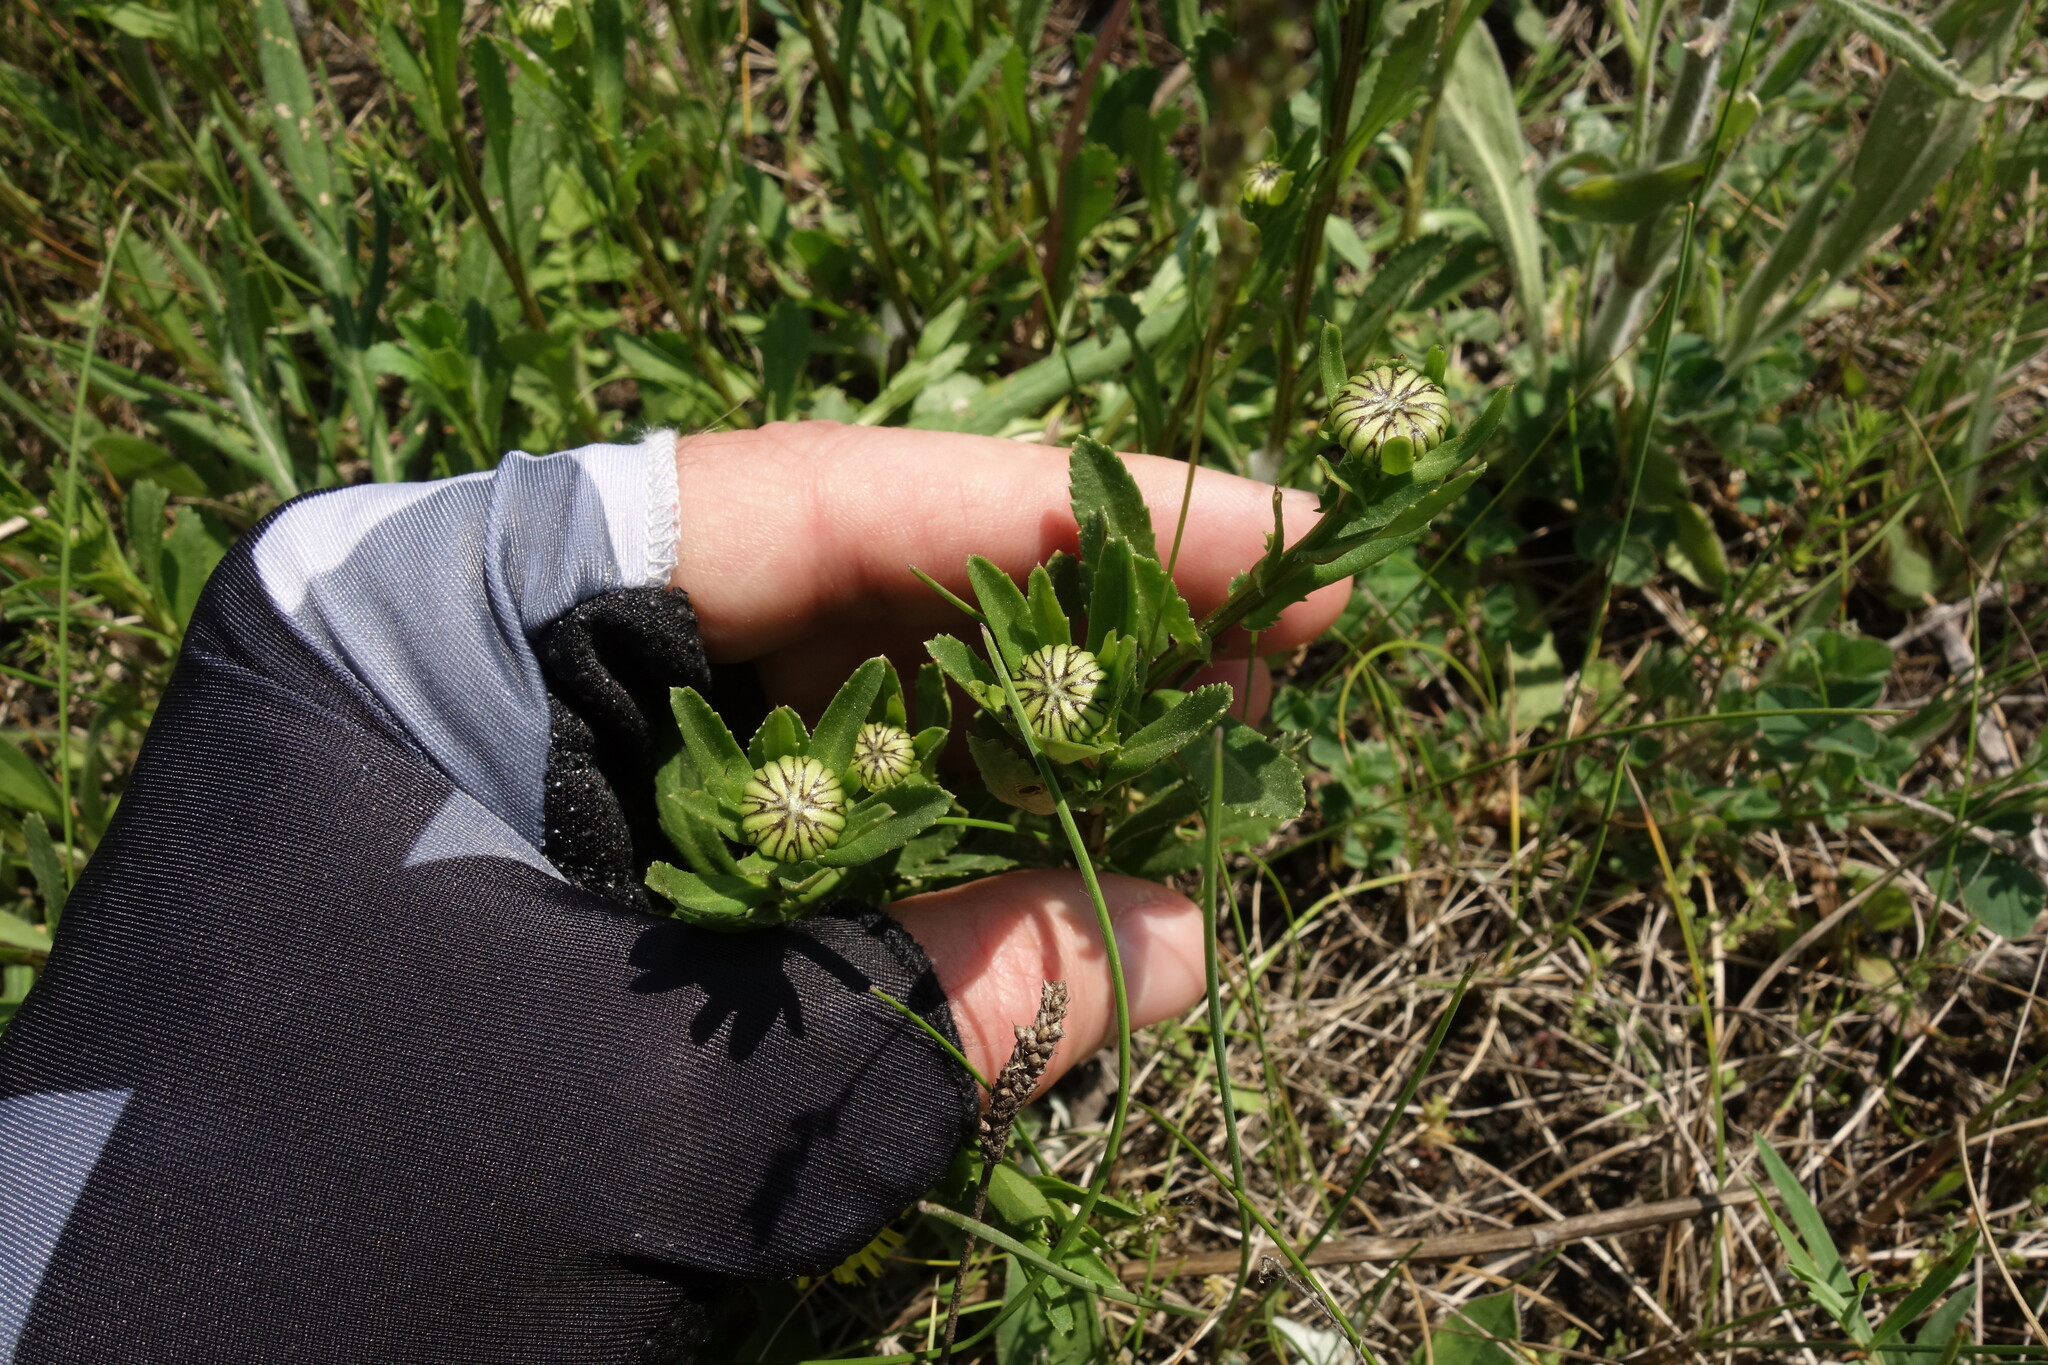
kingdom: Plantae
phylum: Tracheophyta
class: Magnoliopsida
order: Asterales
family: Asteraceae
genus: Leucanthemum
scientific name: Leucanthemum vulgare
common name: Oxeye daisy
